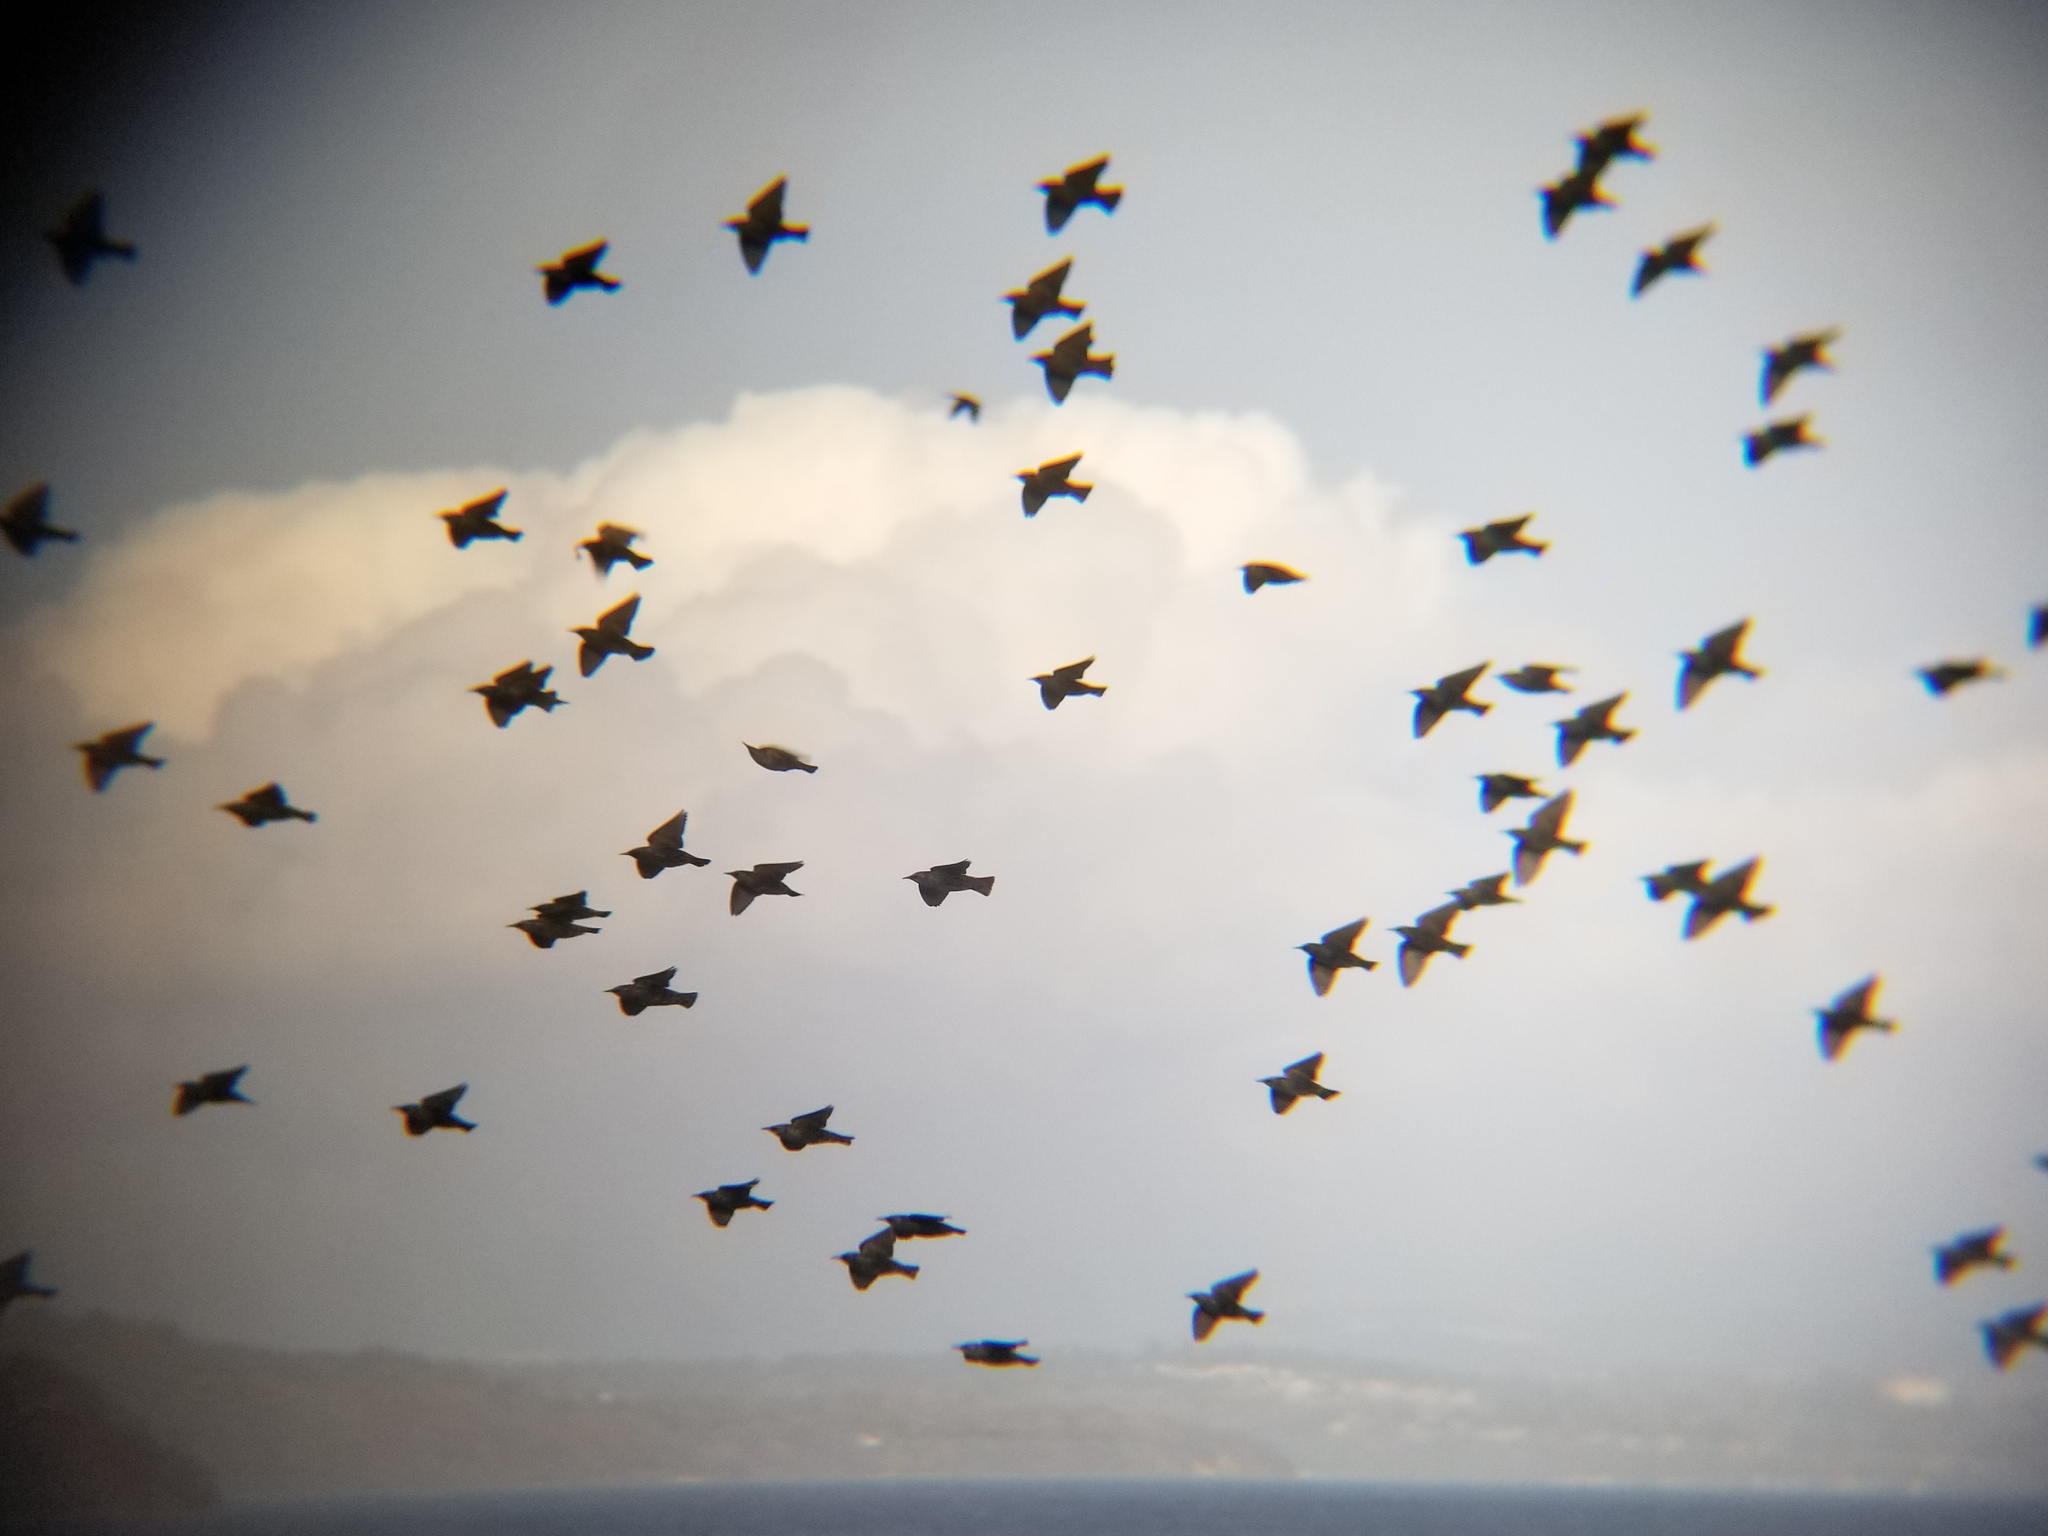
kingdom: Animalia
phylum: Chordata
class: Aves
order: Passeriformes
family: Sturnidae
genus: Sturnus
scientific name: Sturnus vulgaris
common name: Common starling
